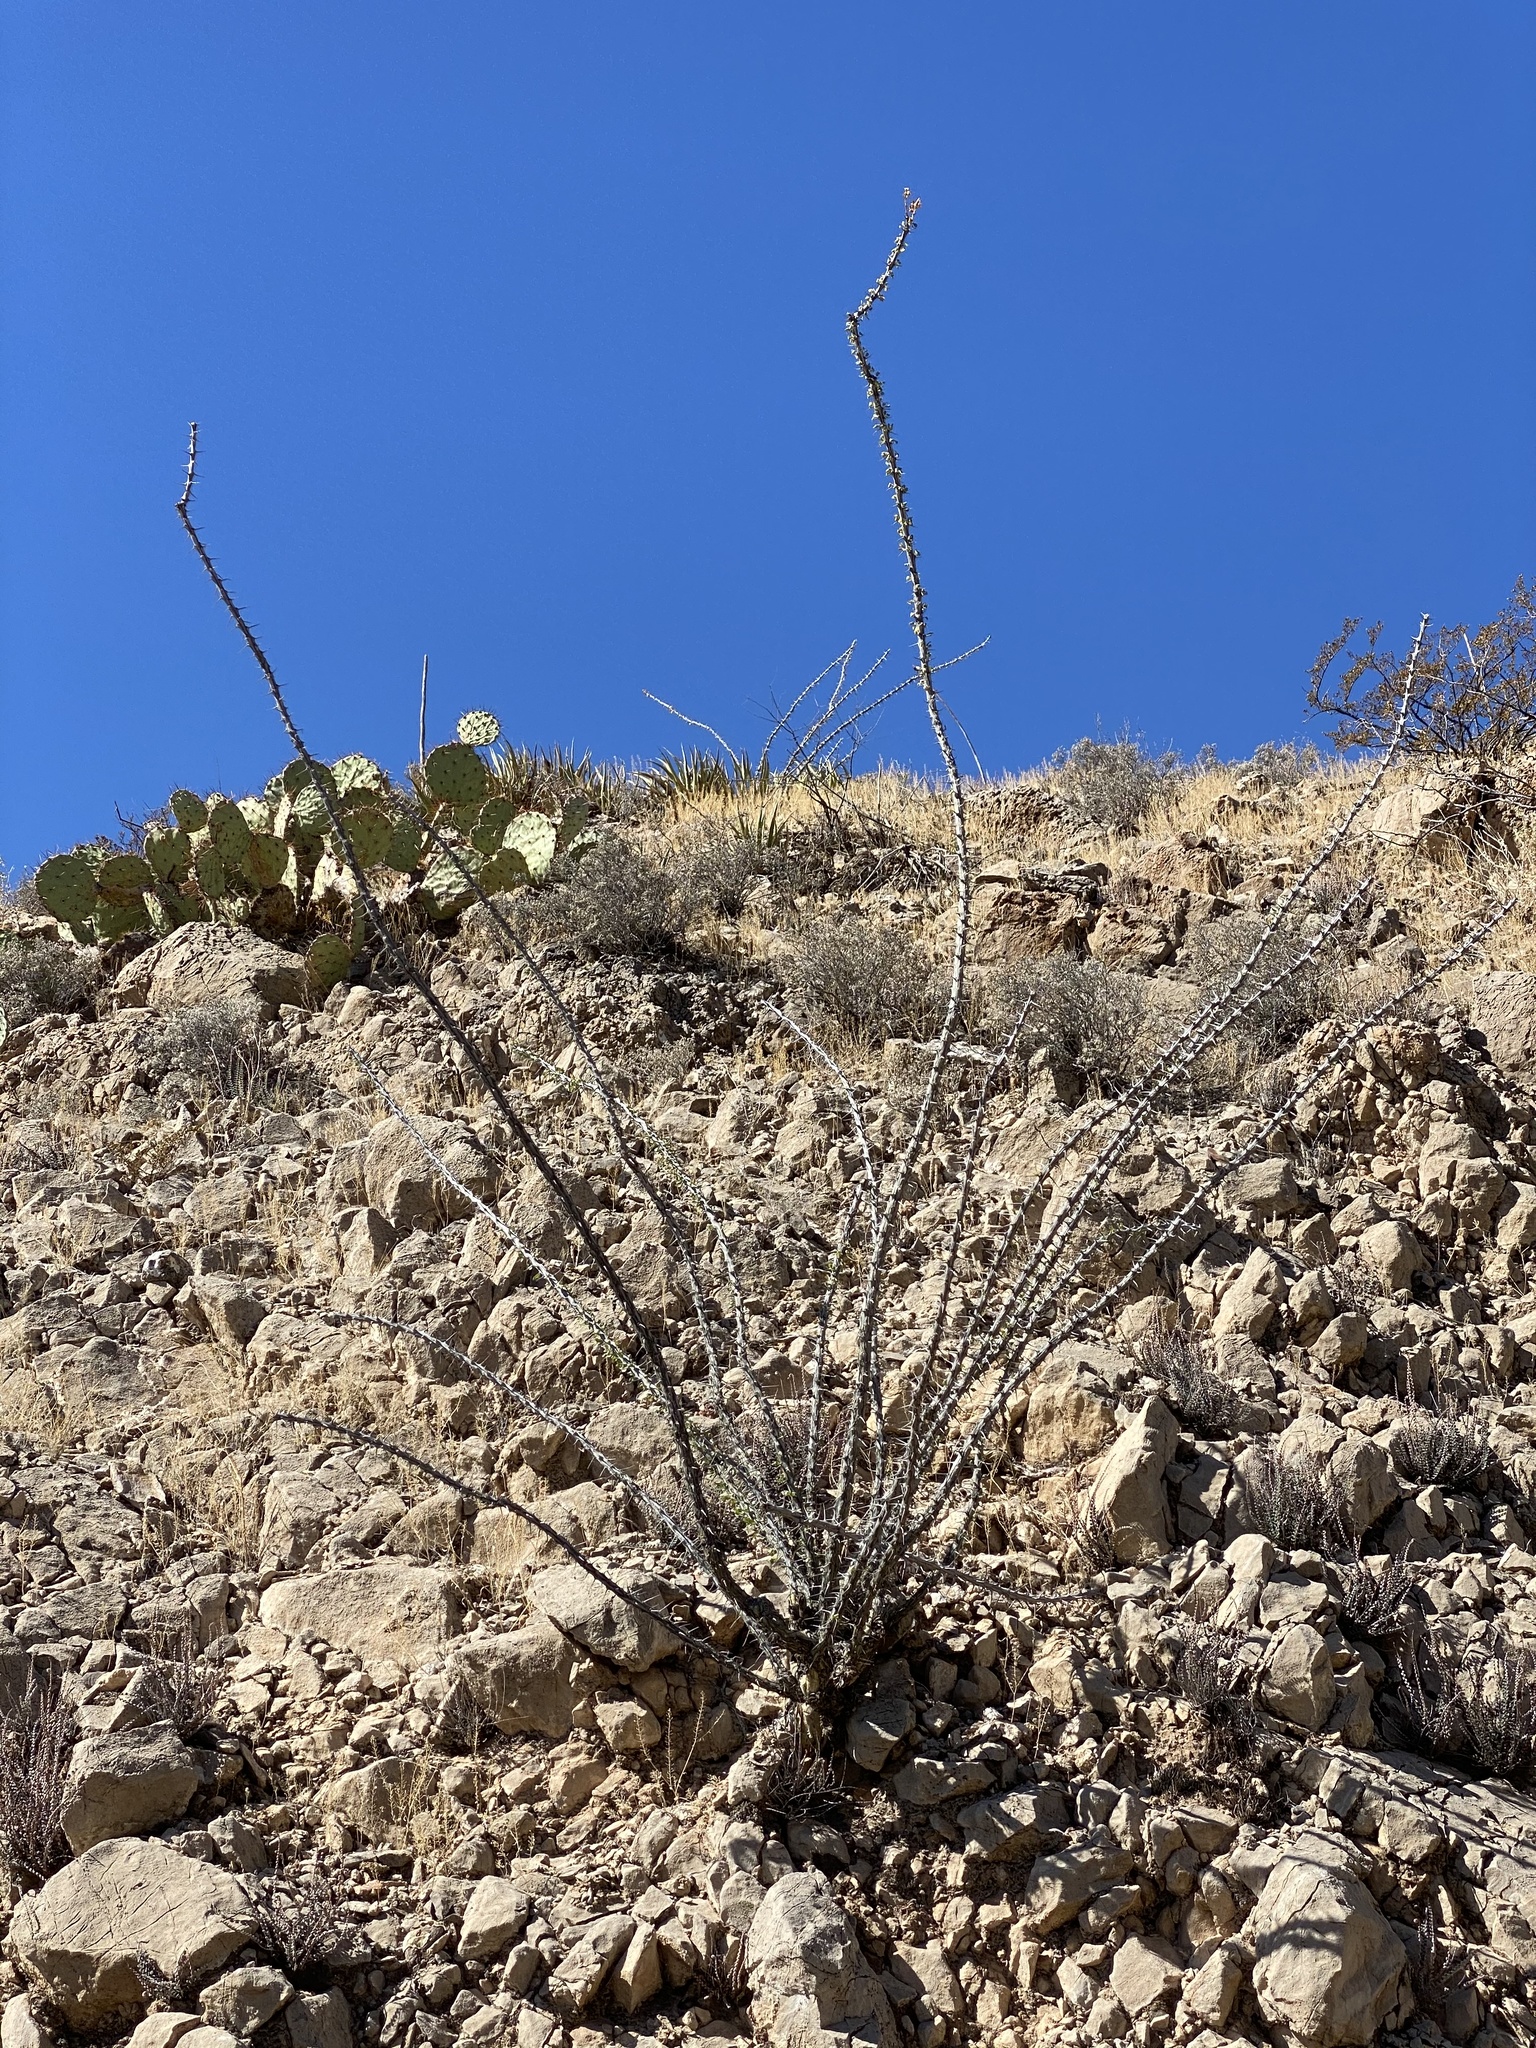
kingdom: Plantae
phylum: Tracheophyta
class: Magnoliopsida
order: Ericales
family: Fouquieriaceae
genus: Fouquieria
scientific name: Fouquieria splendens
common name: Vine-cactus
